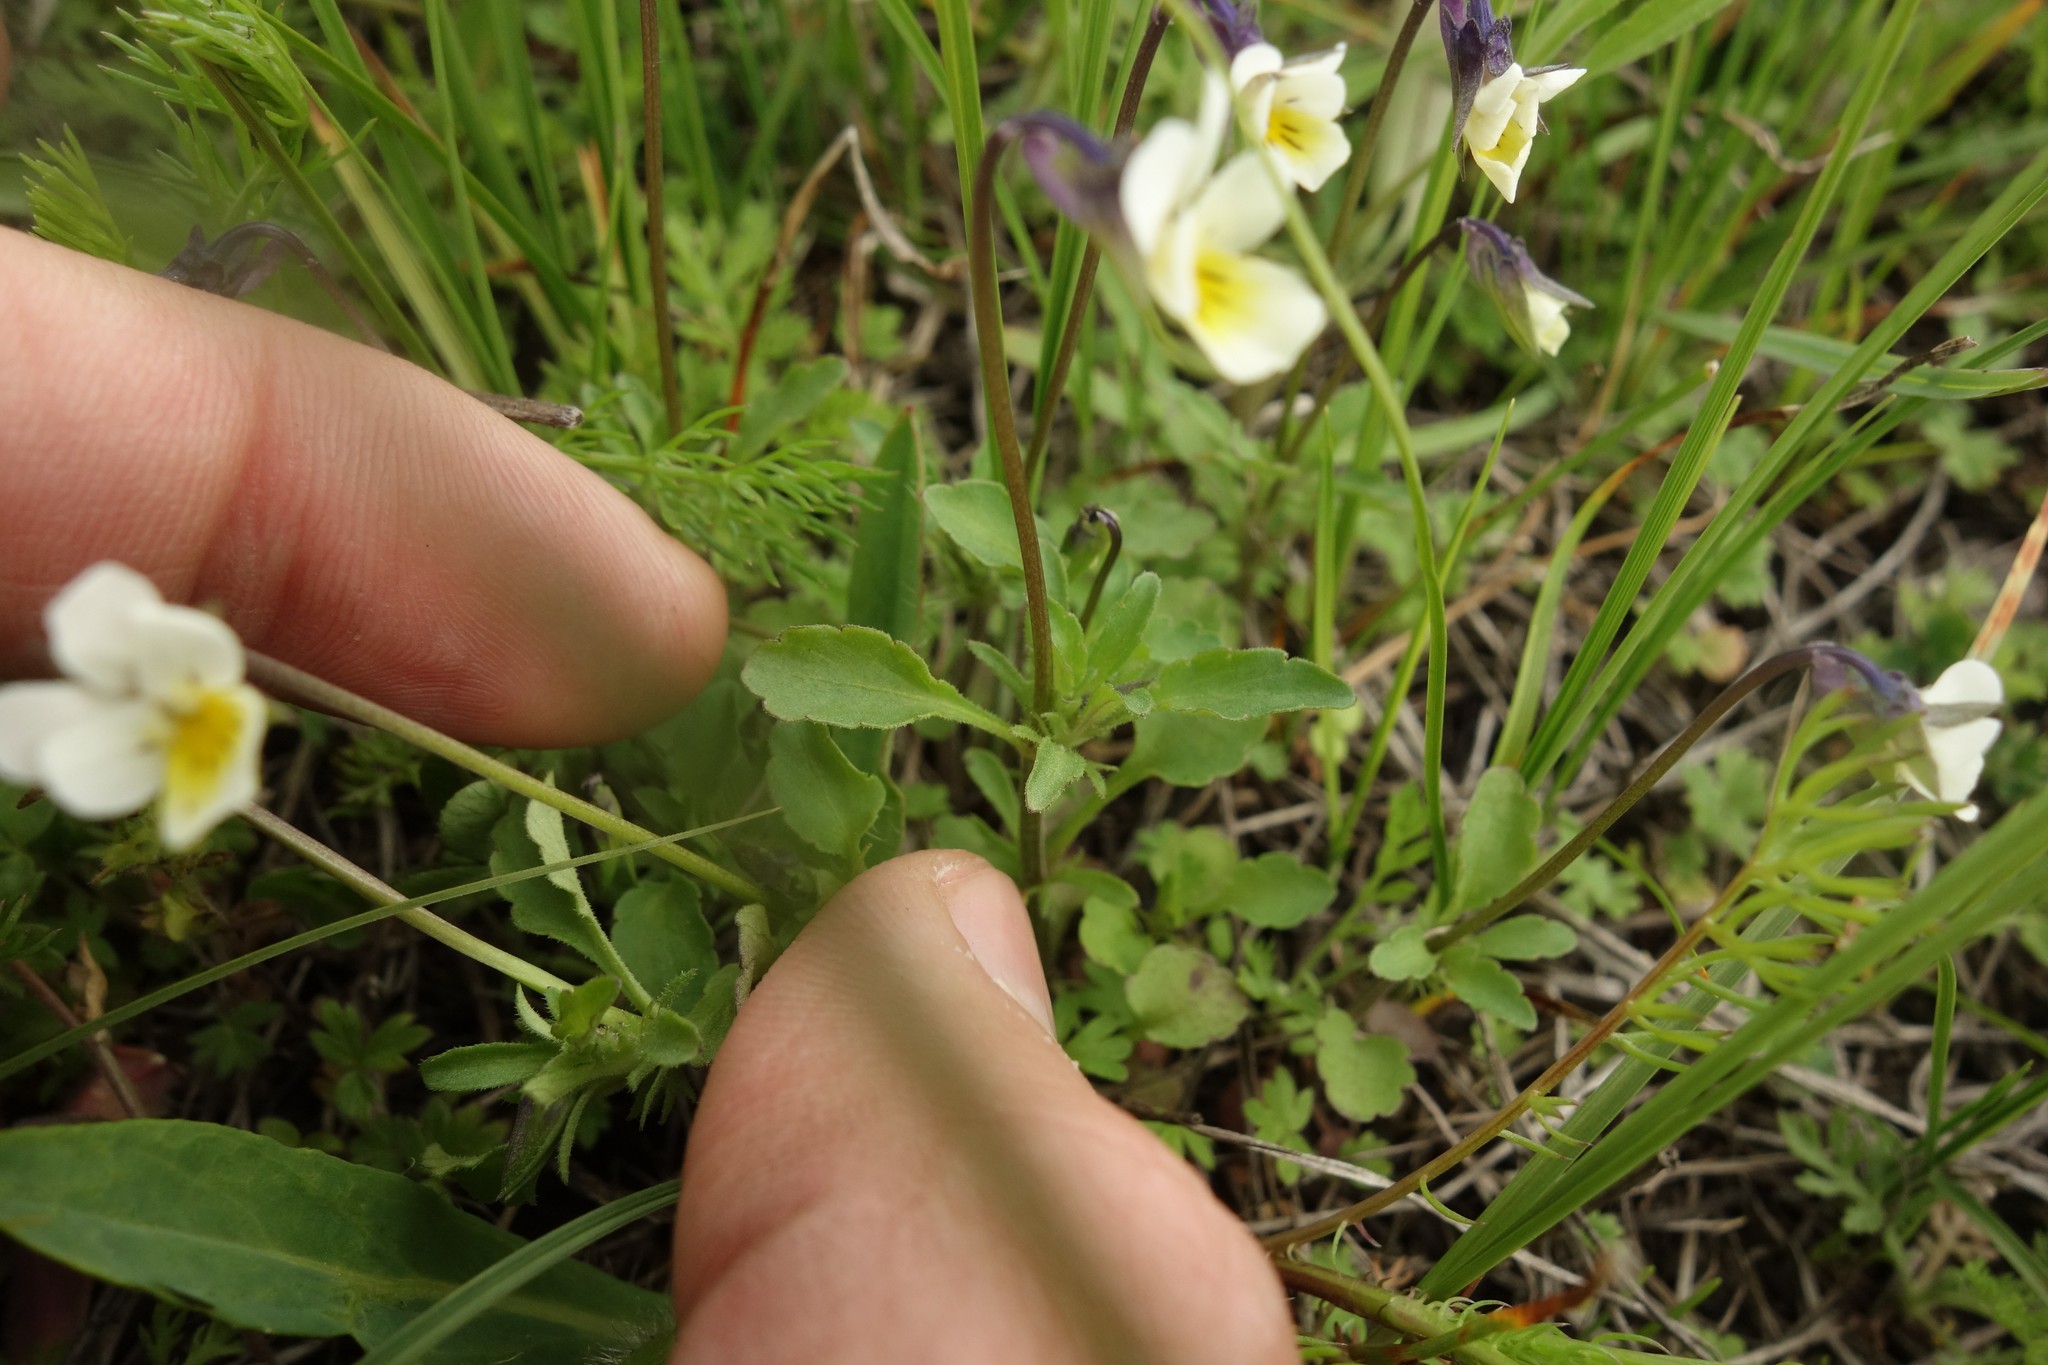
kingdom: Plantae
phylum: Tracheophyta
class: Magnoliopsida
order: Malpighiales
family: Violaceae
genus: Viola
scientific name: Viola arvensis
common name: Field pansy
